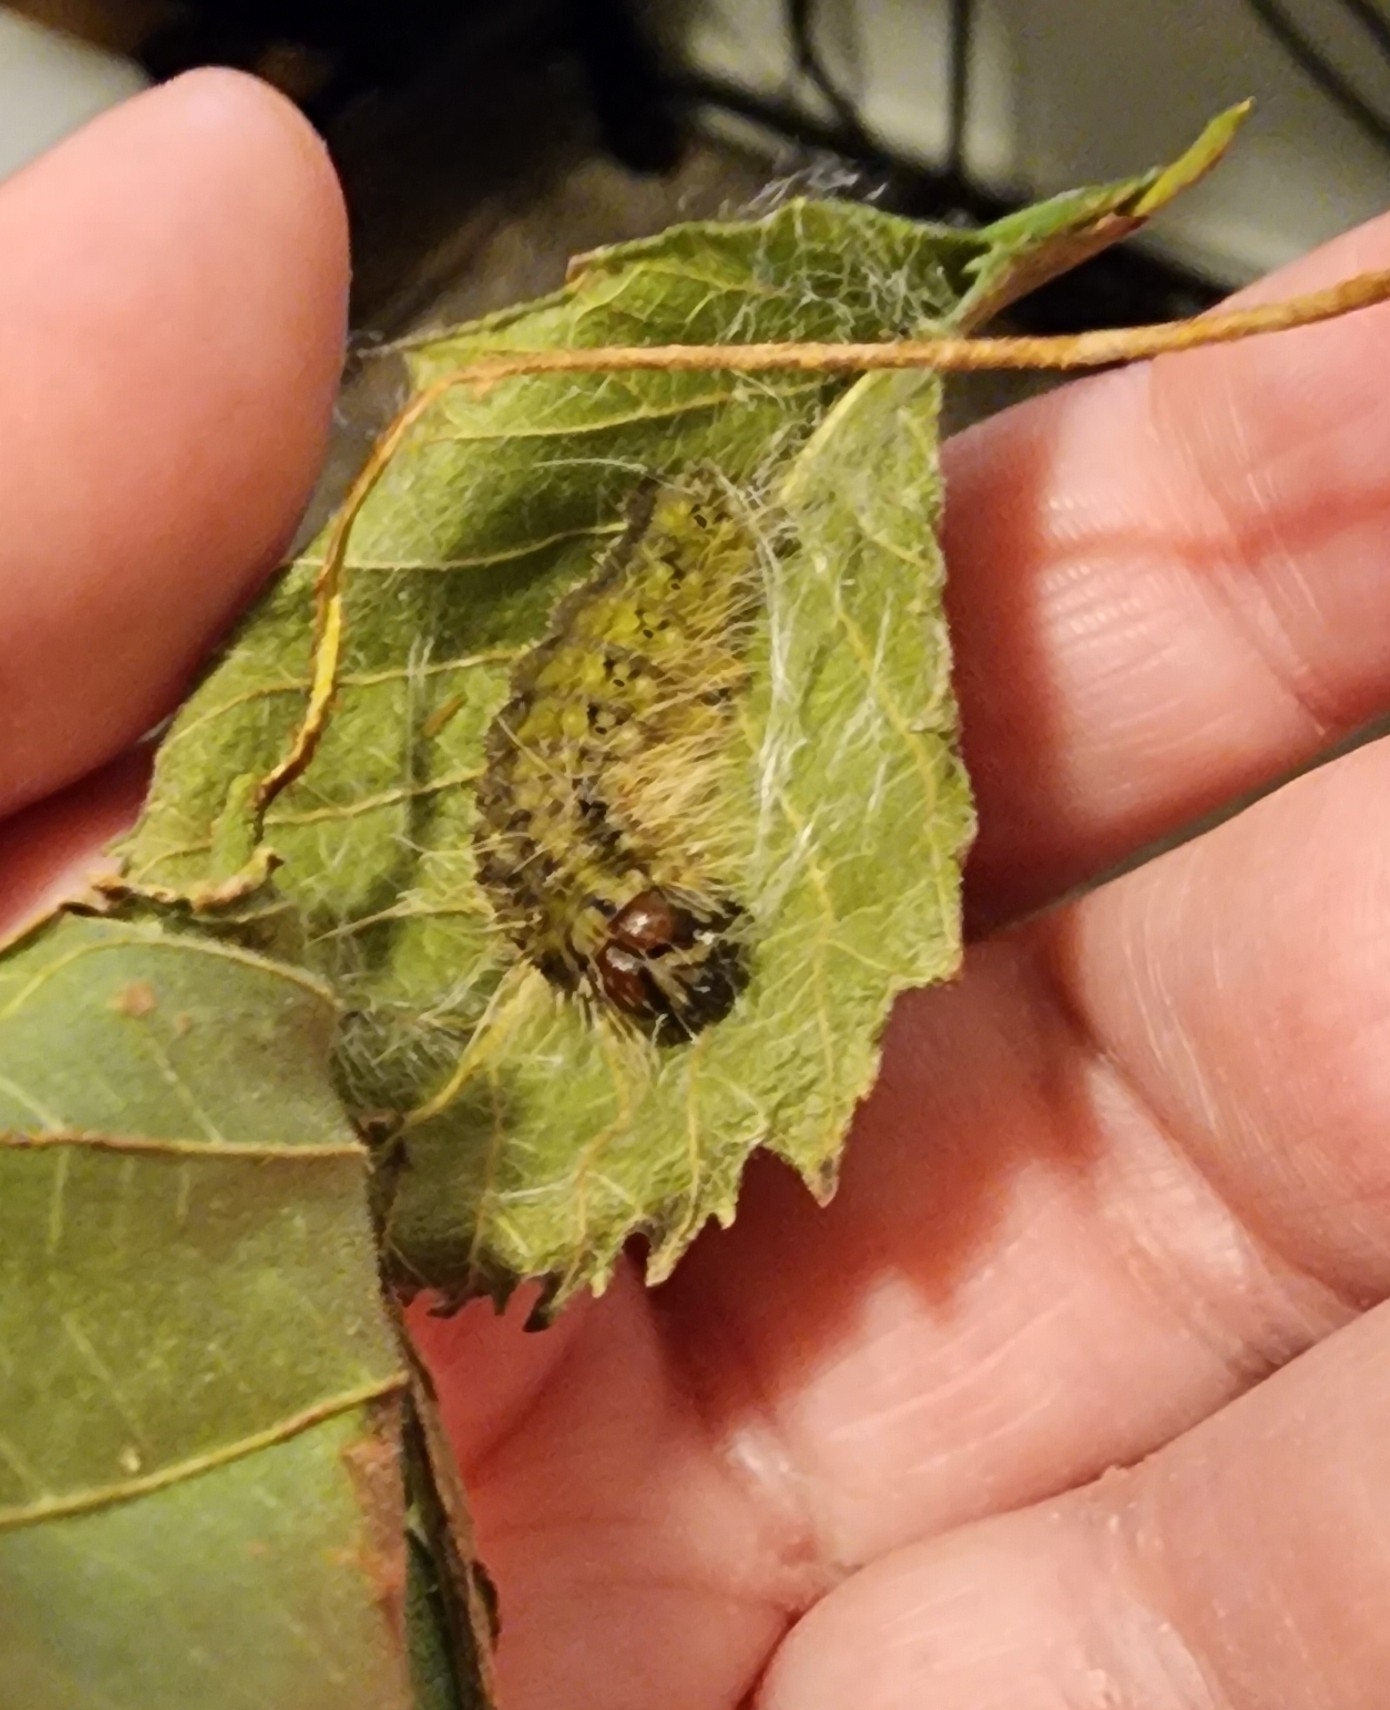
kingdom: Animalia
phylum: Arthropoda
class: Insecta
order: Lepidoptera
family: Noctuidae
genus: Acronicta
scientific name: Acronicta morula
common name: Ochre dagger
